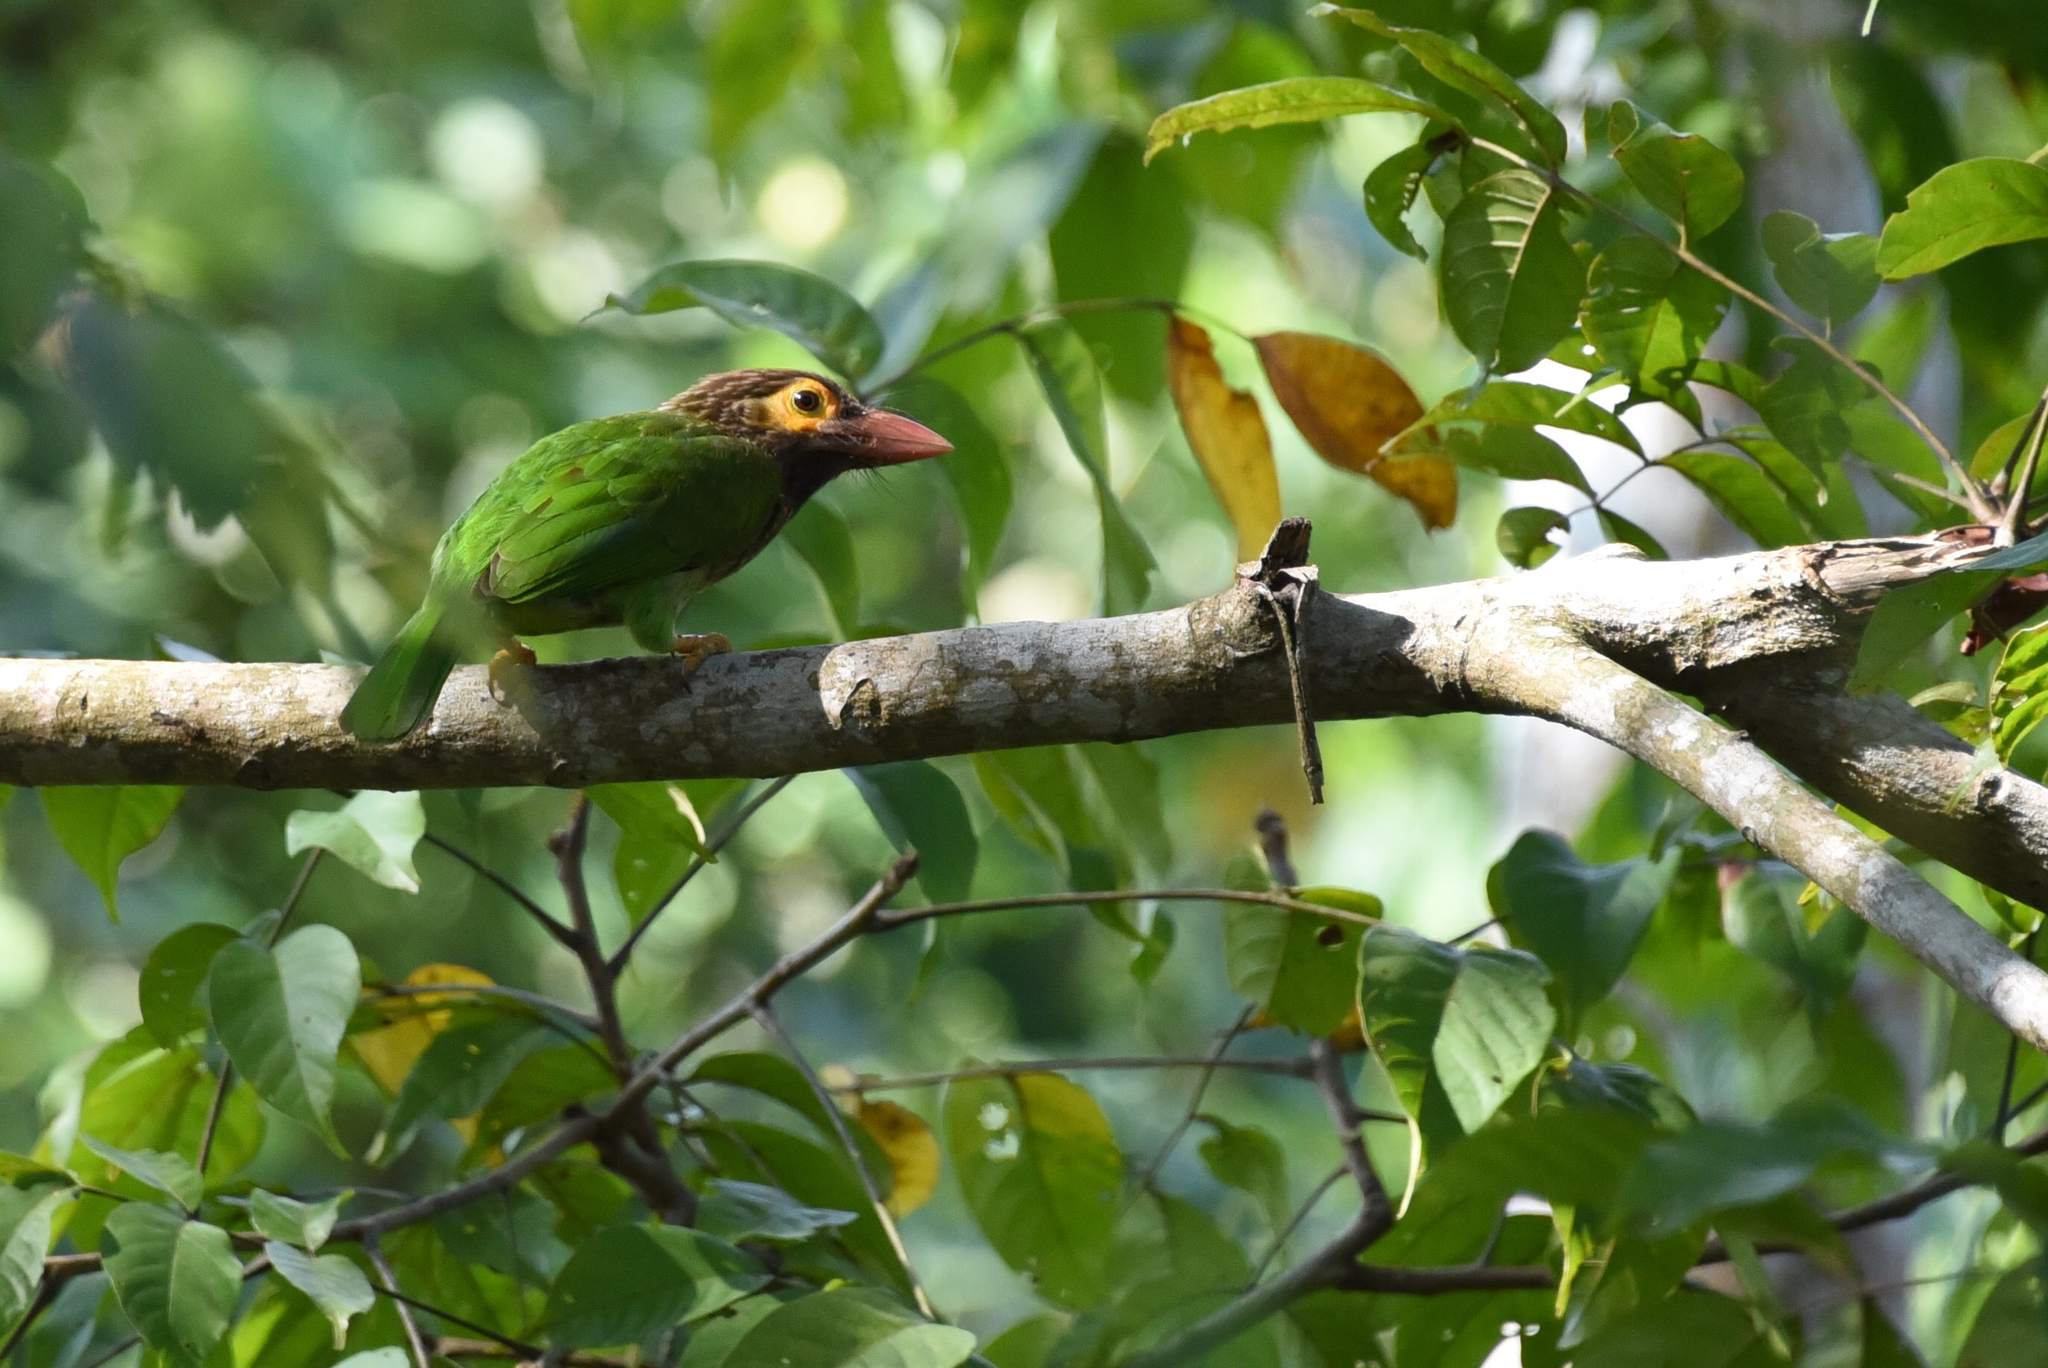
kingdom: Animalia
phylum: Chordata
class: Aves
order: Piciformes
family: Megalaimidae
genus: Psilopogon
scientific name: Psilopogon zeylanicus
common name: Brown-headed barbet
